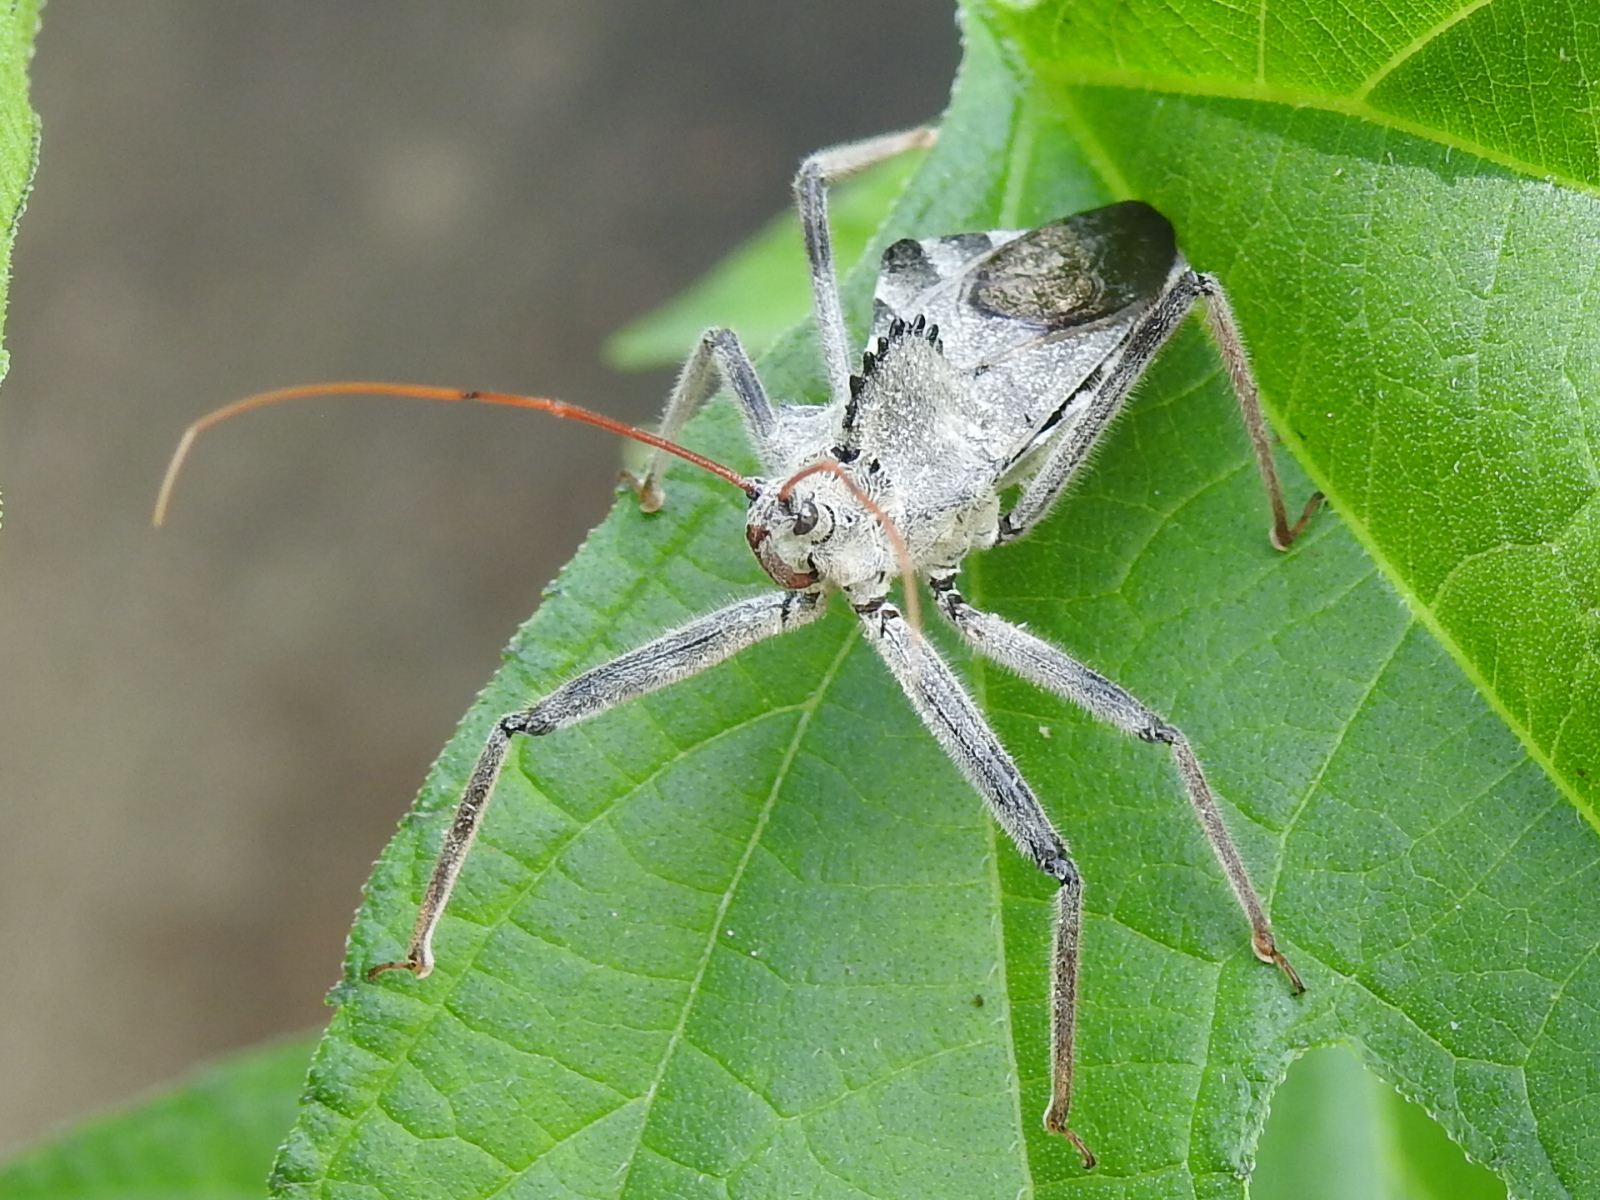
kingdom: Animalia
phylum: Arthropoda
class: Insecta
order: Hemiptera
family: Reduviidae
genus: Arilus
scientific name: Arilus cristatus
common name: North american wheel bug
